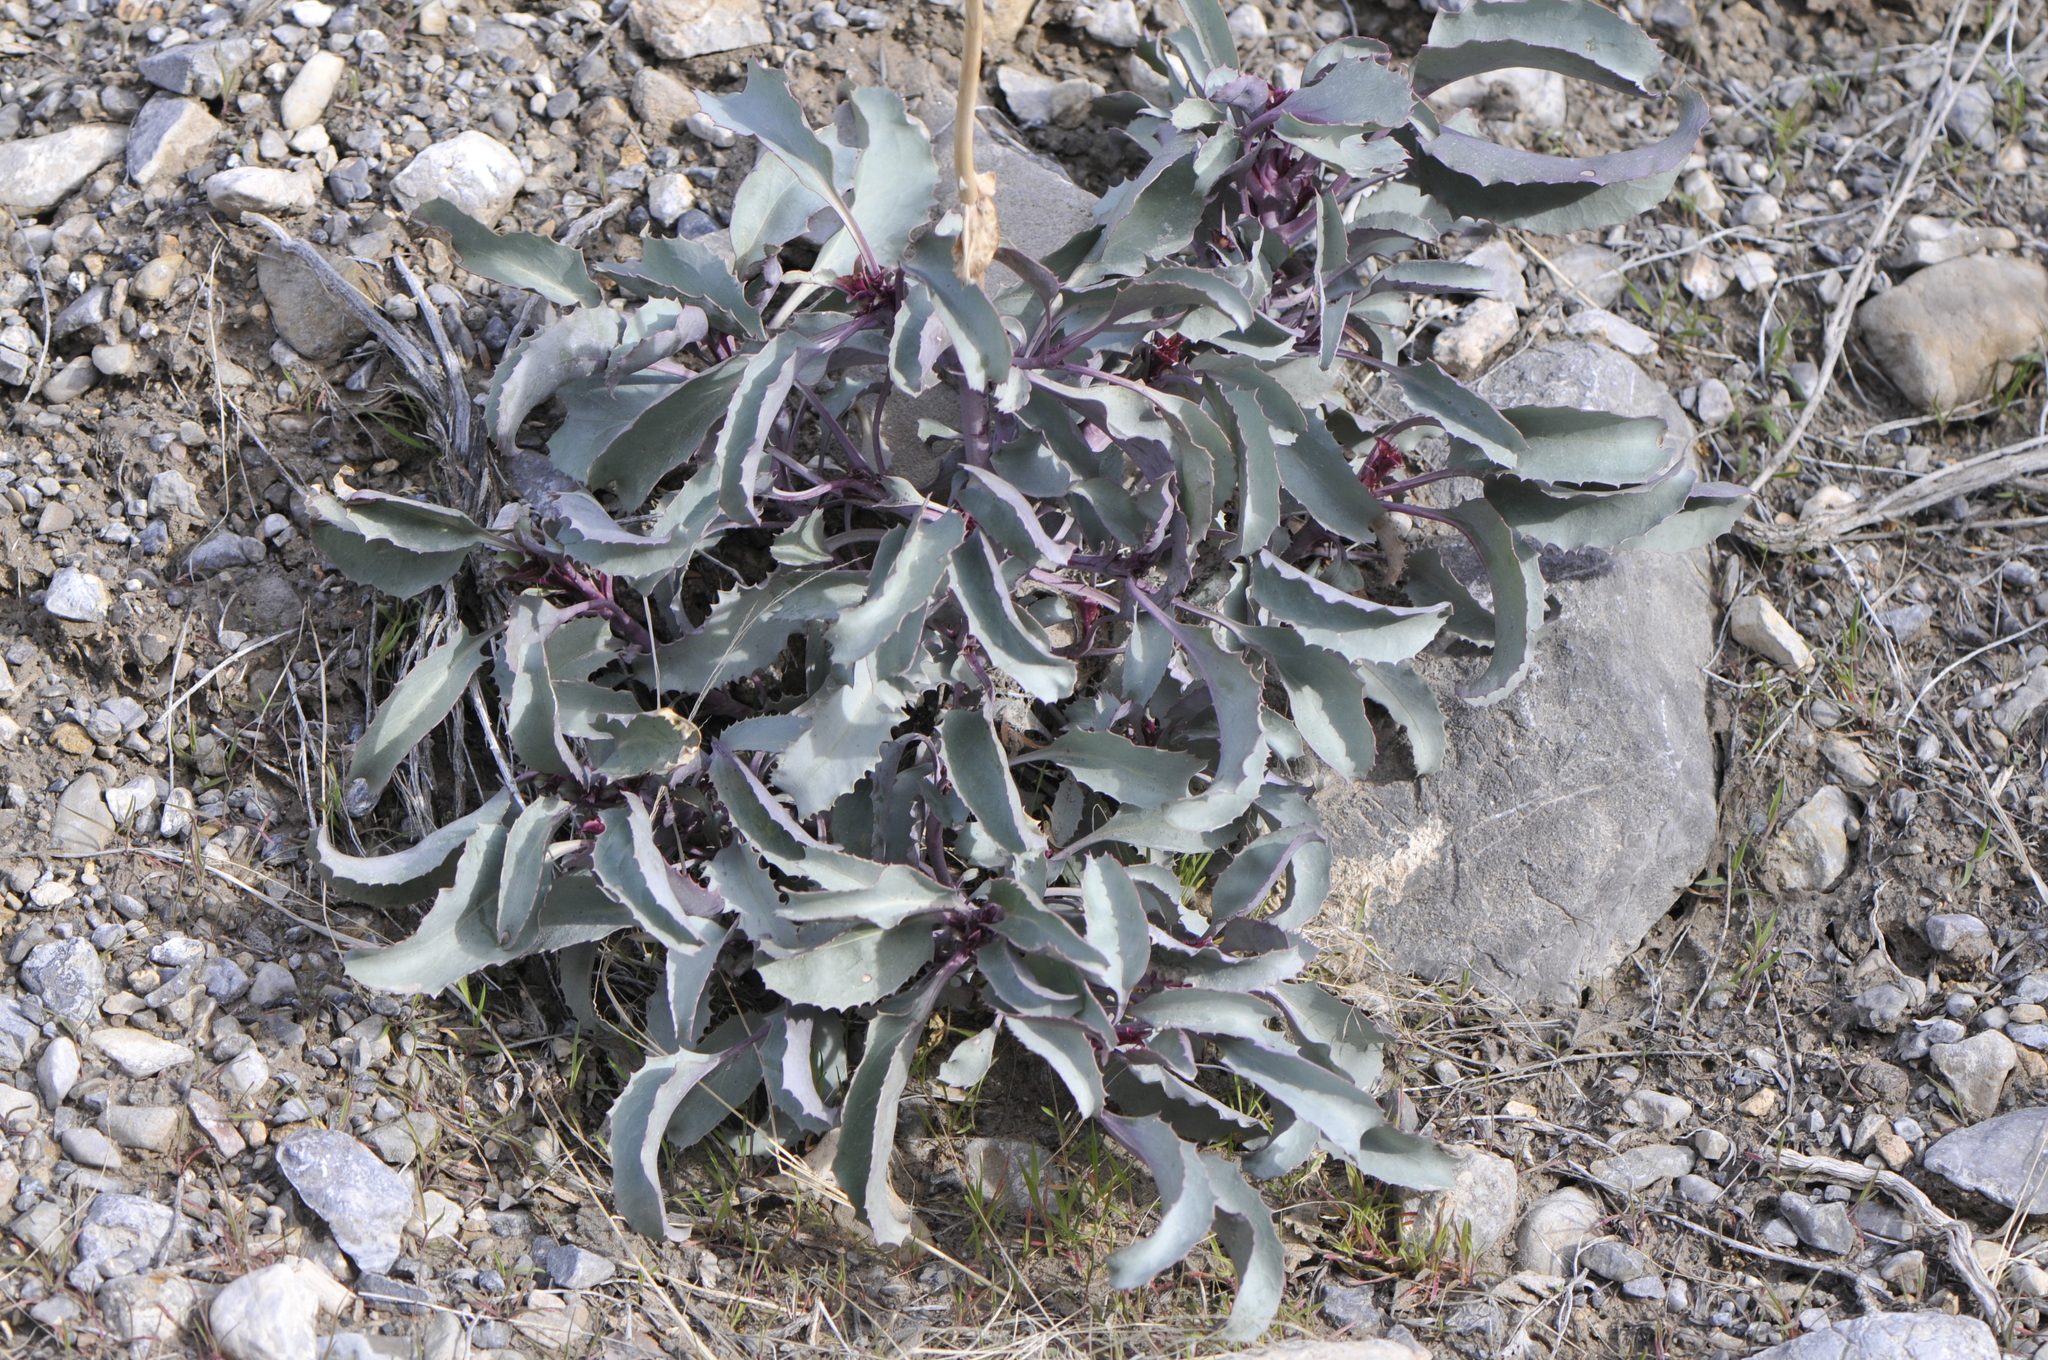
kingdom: Plantae
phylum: Tracheophyta
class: Magnoliopsida
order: Lamiales
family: Plantaginaceae
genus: Penstemon
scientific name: Penstemon palmeri
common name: Palmer penstemon
